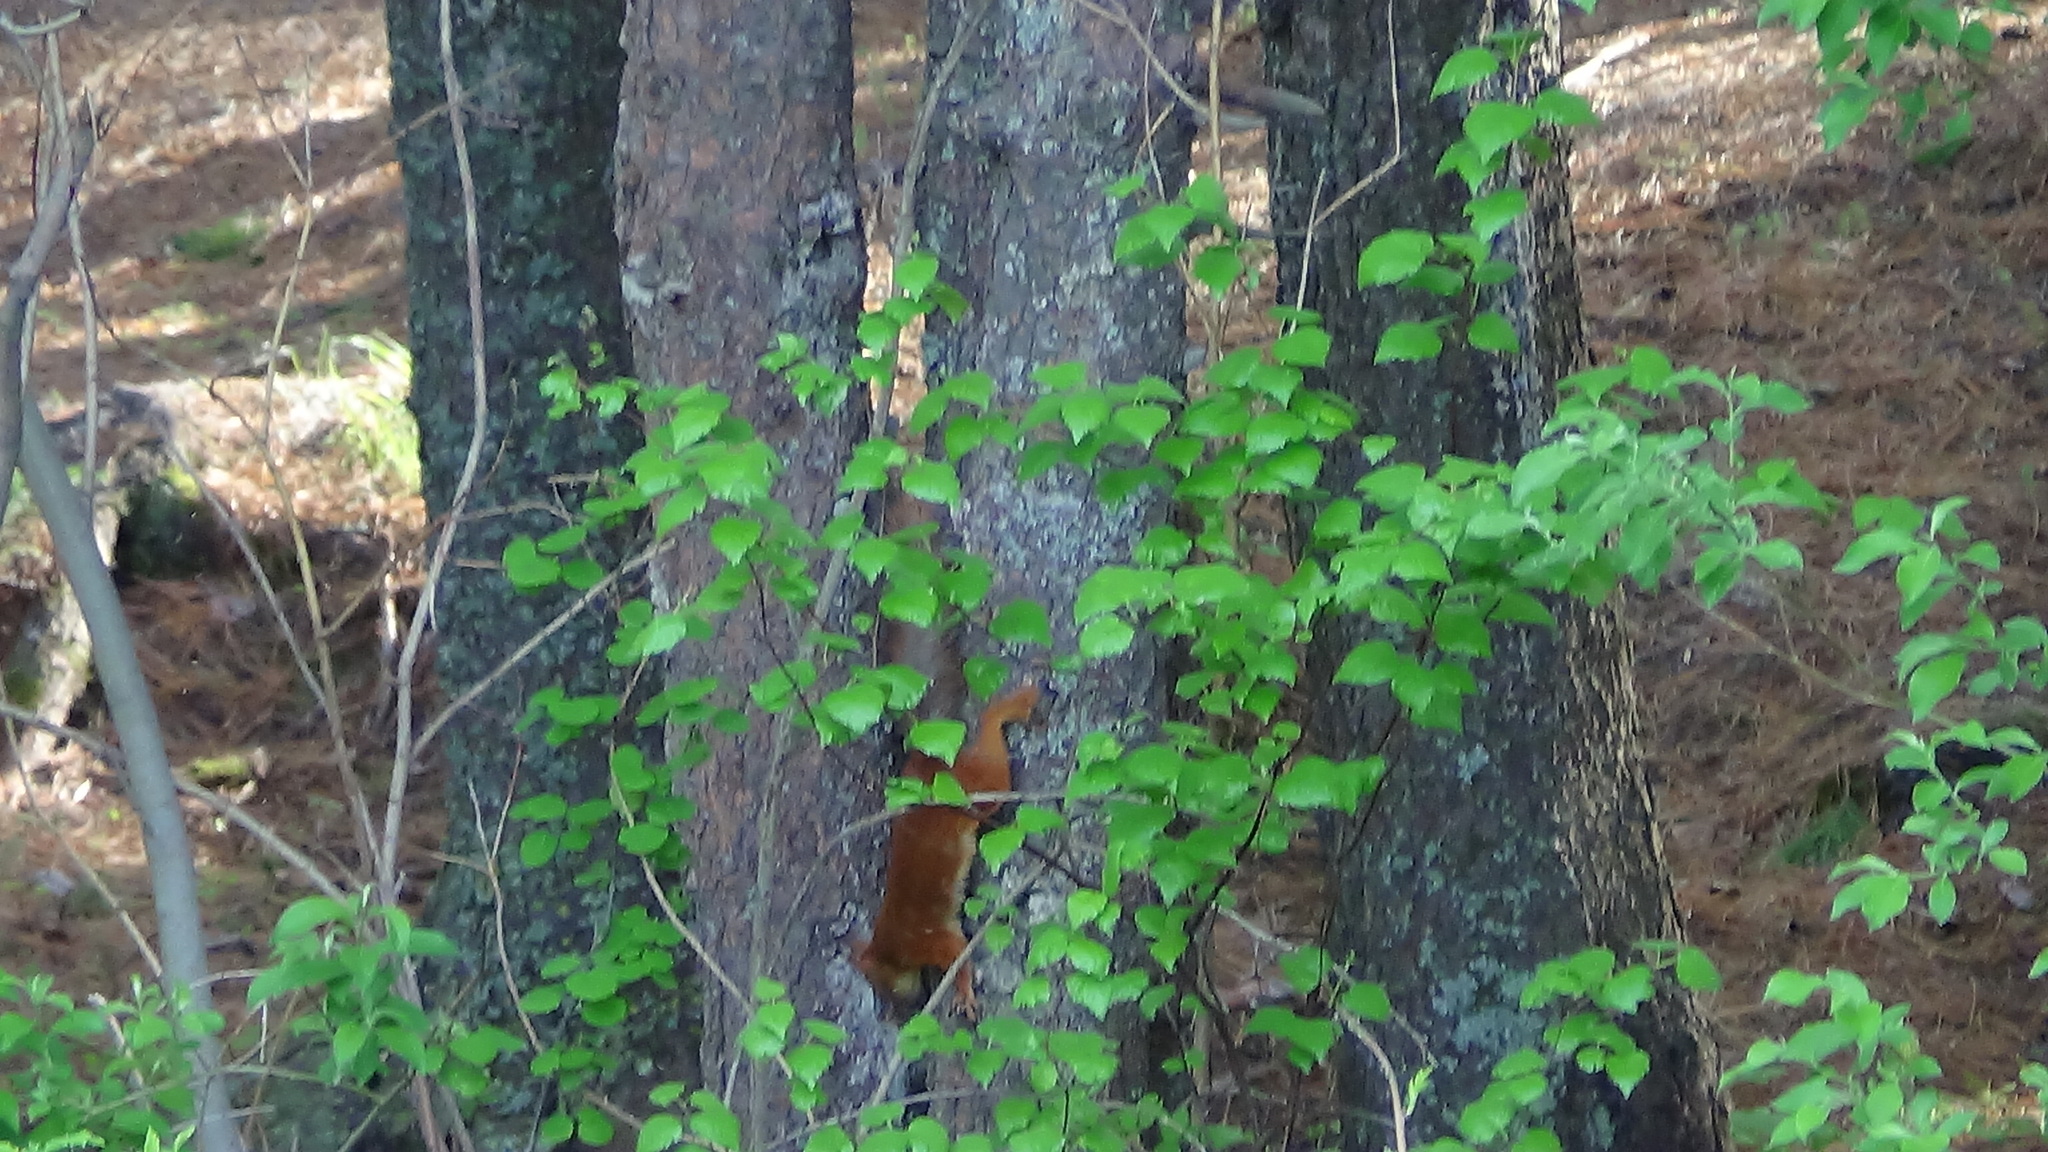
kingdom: Animalia
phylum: Chordata
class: Mammalia
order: Rodentia
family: Sciuridae
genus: Sciurus
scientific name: Sciurus vulgaris
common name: Eurasian red squirrel
